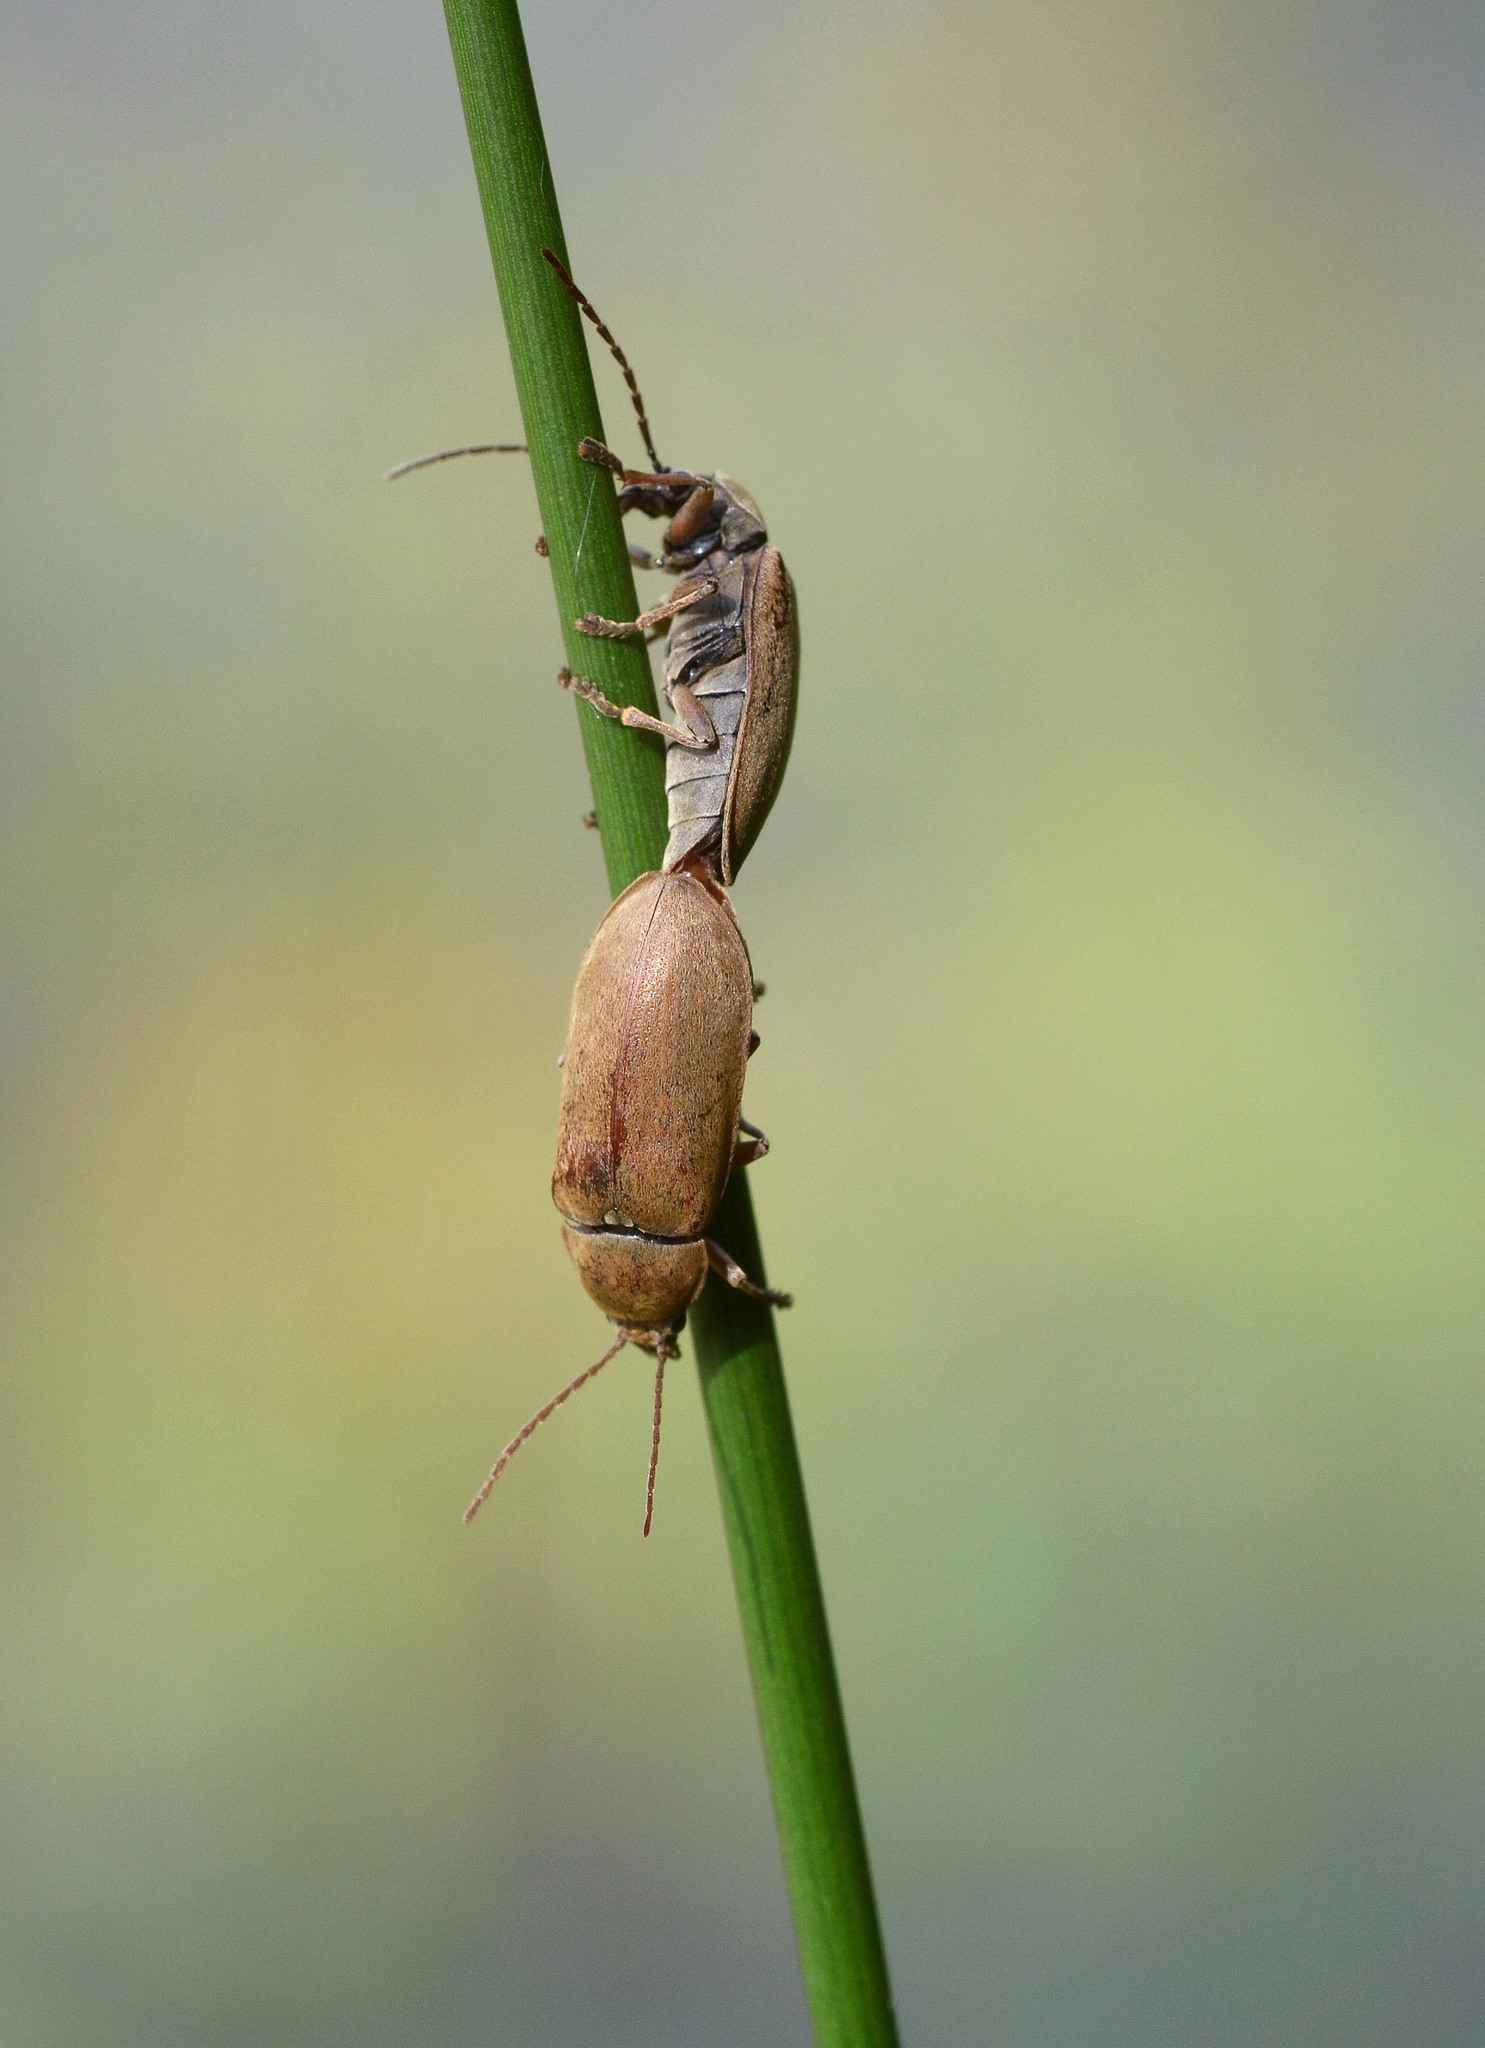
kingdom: Animalia
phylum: Arthropoda
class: Insecta
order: Coleoptera
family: Dascillidae
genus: Dascillus
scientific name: Dascillus cervinus
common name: Orchid beetle
